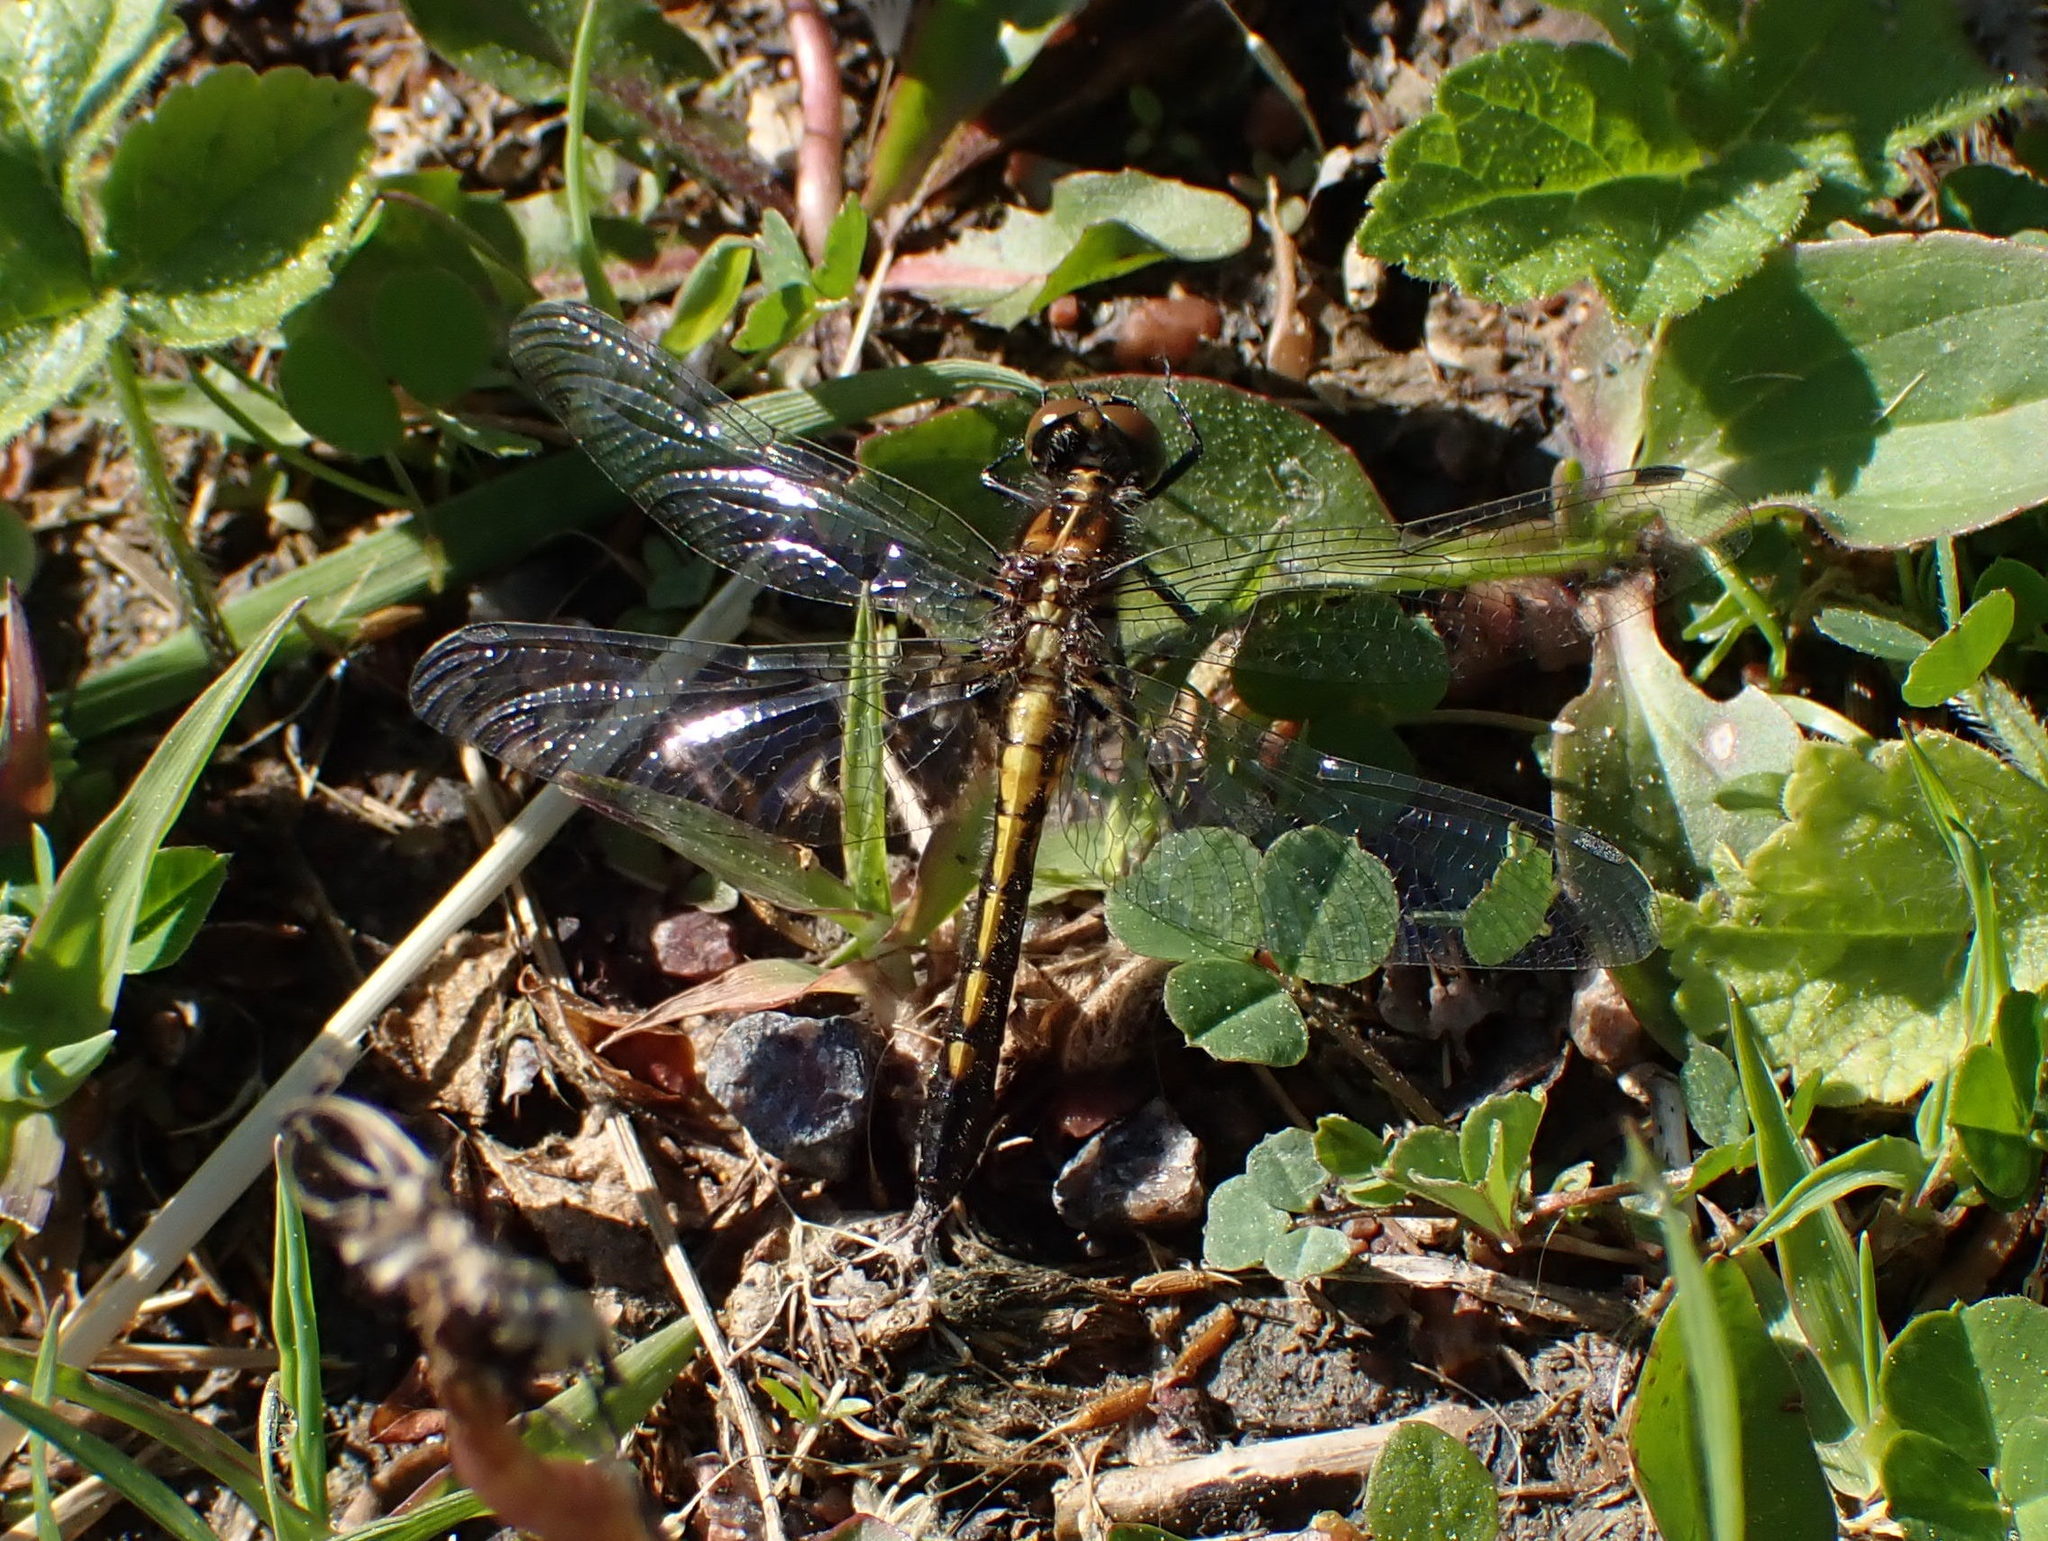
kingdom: Animalia
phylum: Arthropoda
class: Insecta
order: Odonata
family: Libellulidae
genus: Leucorrhinia
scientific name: Leucorrhinia intacta
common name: Dot-tailed whiteface
